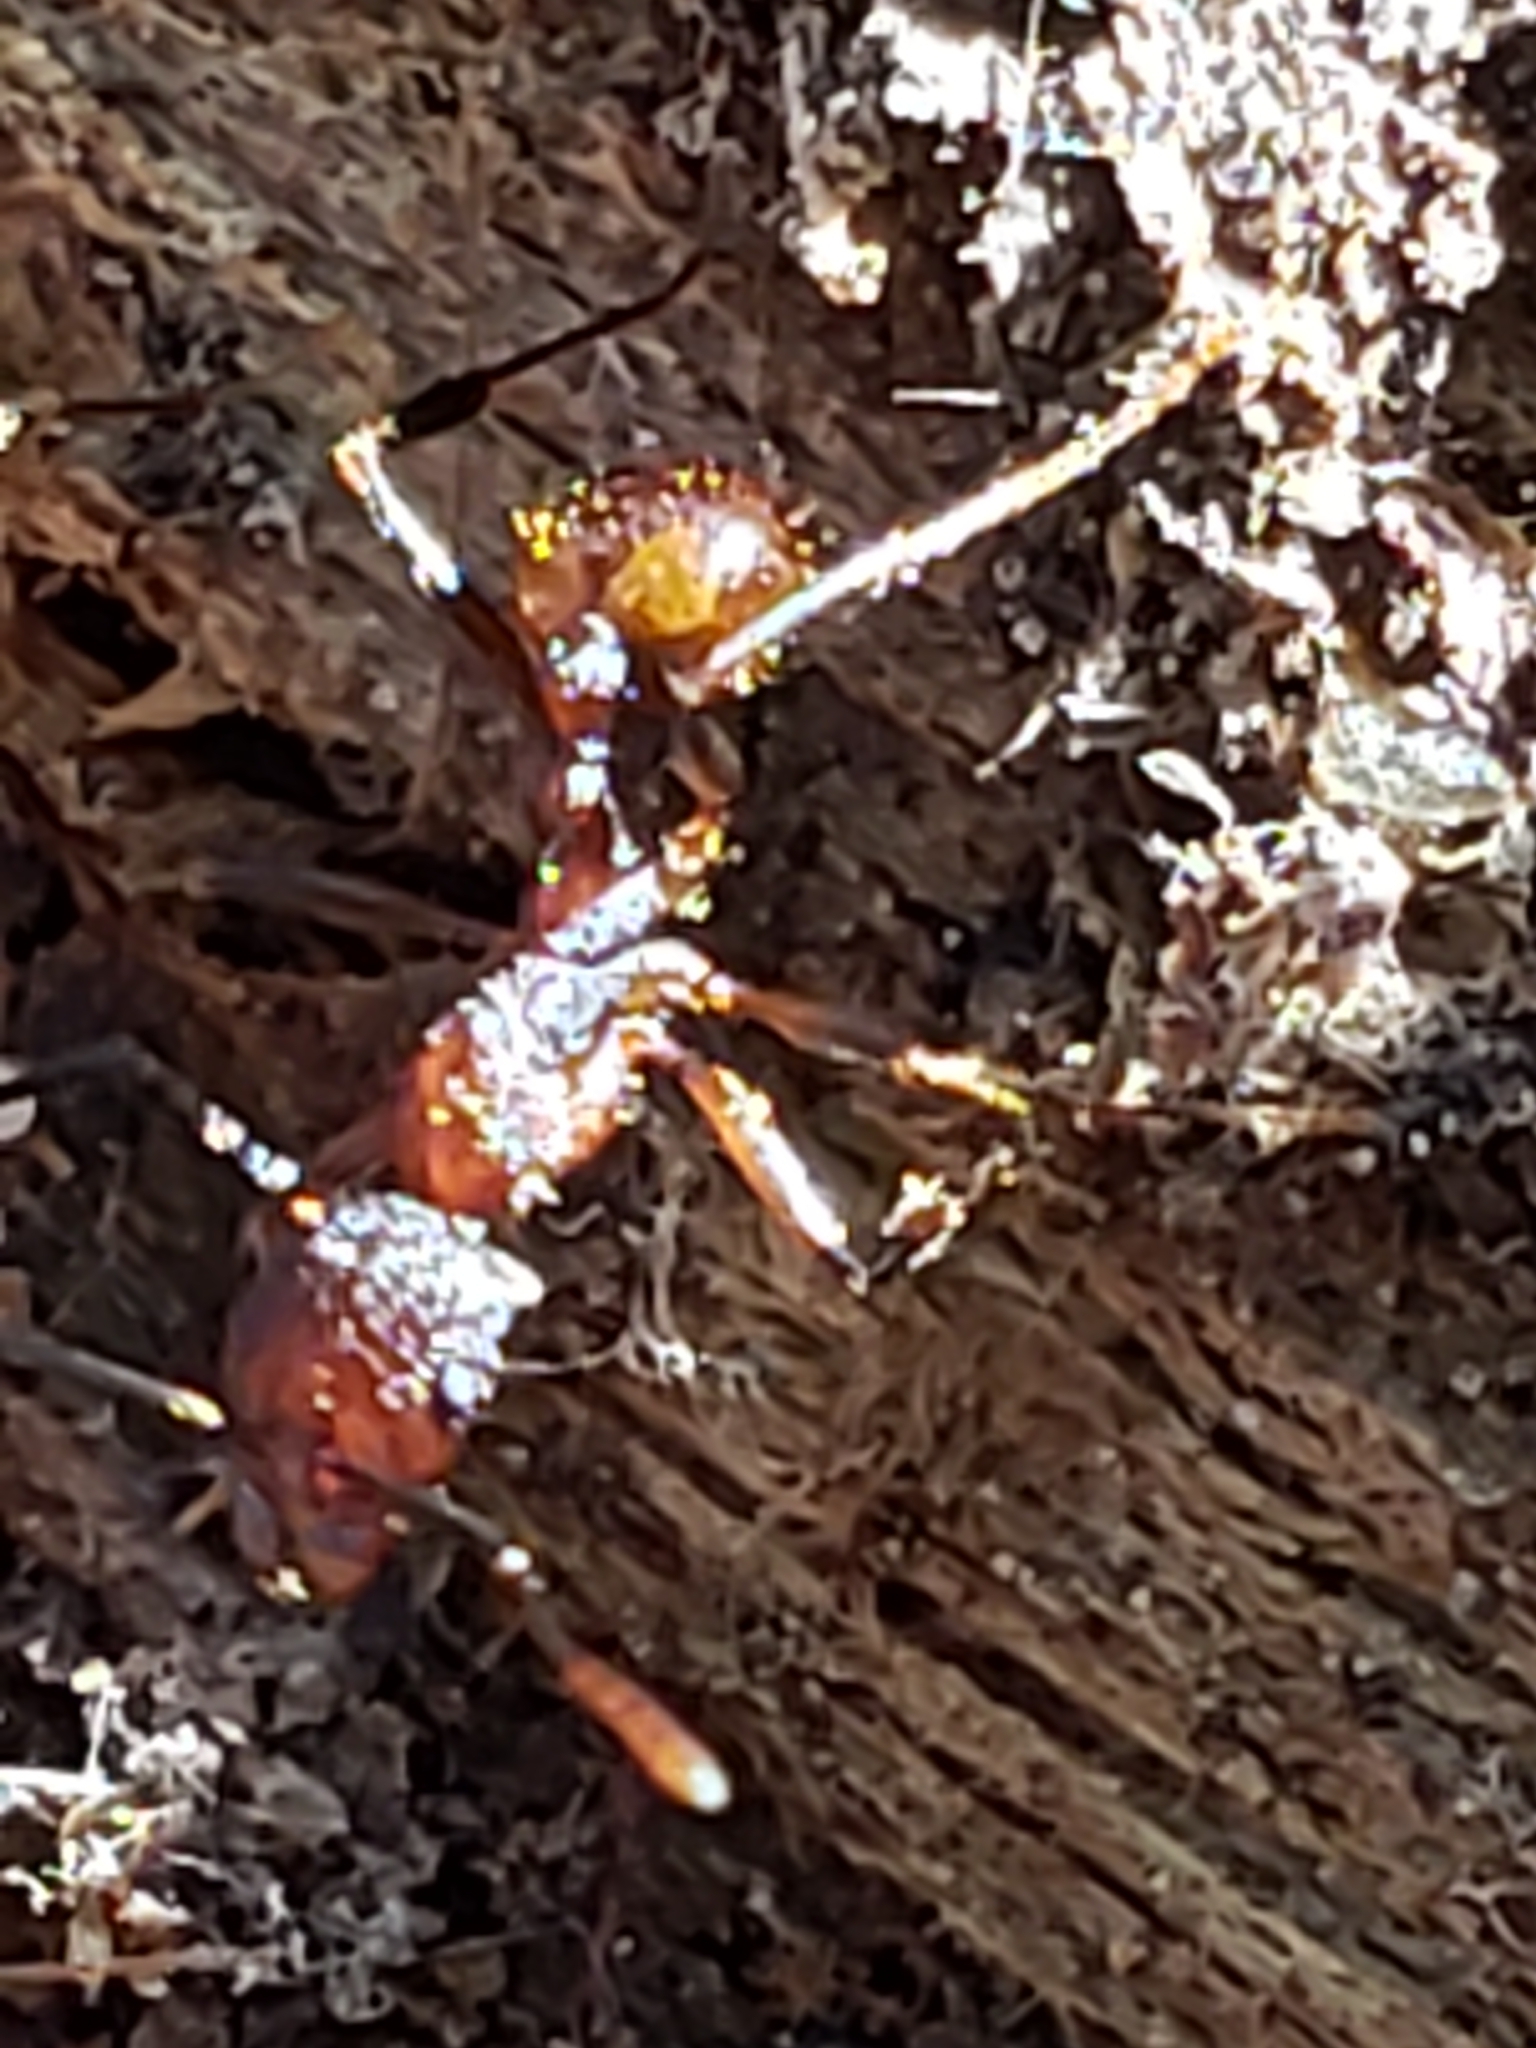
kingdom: Animalia
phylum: Arthropoda
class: Insecta
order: Hymenoptera
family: Formicidae
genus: Aphaenogaster
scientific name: Aphaenogaster fulva
